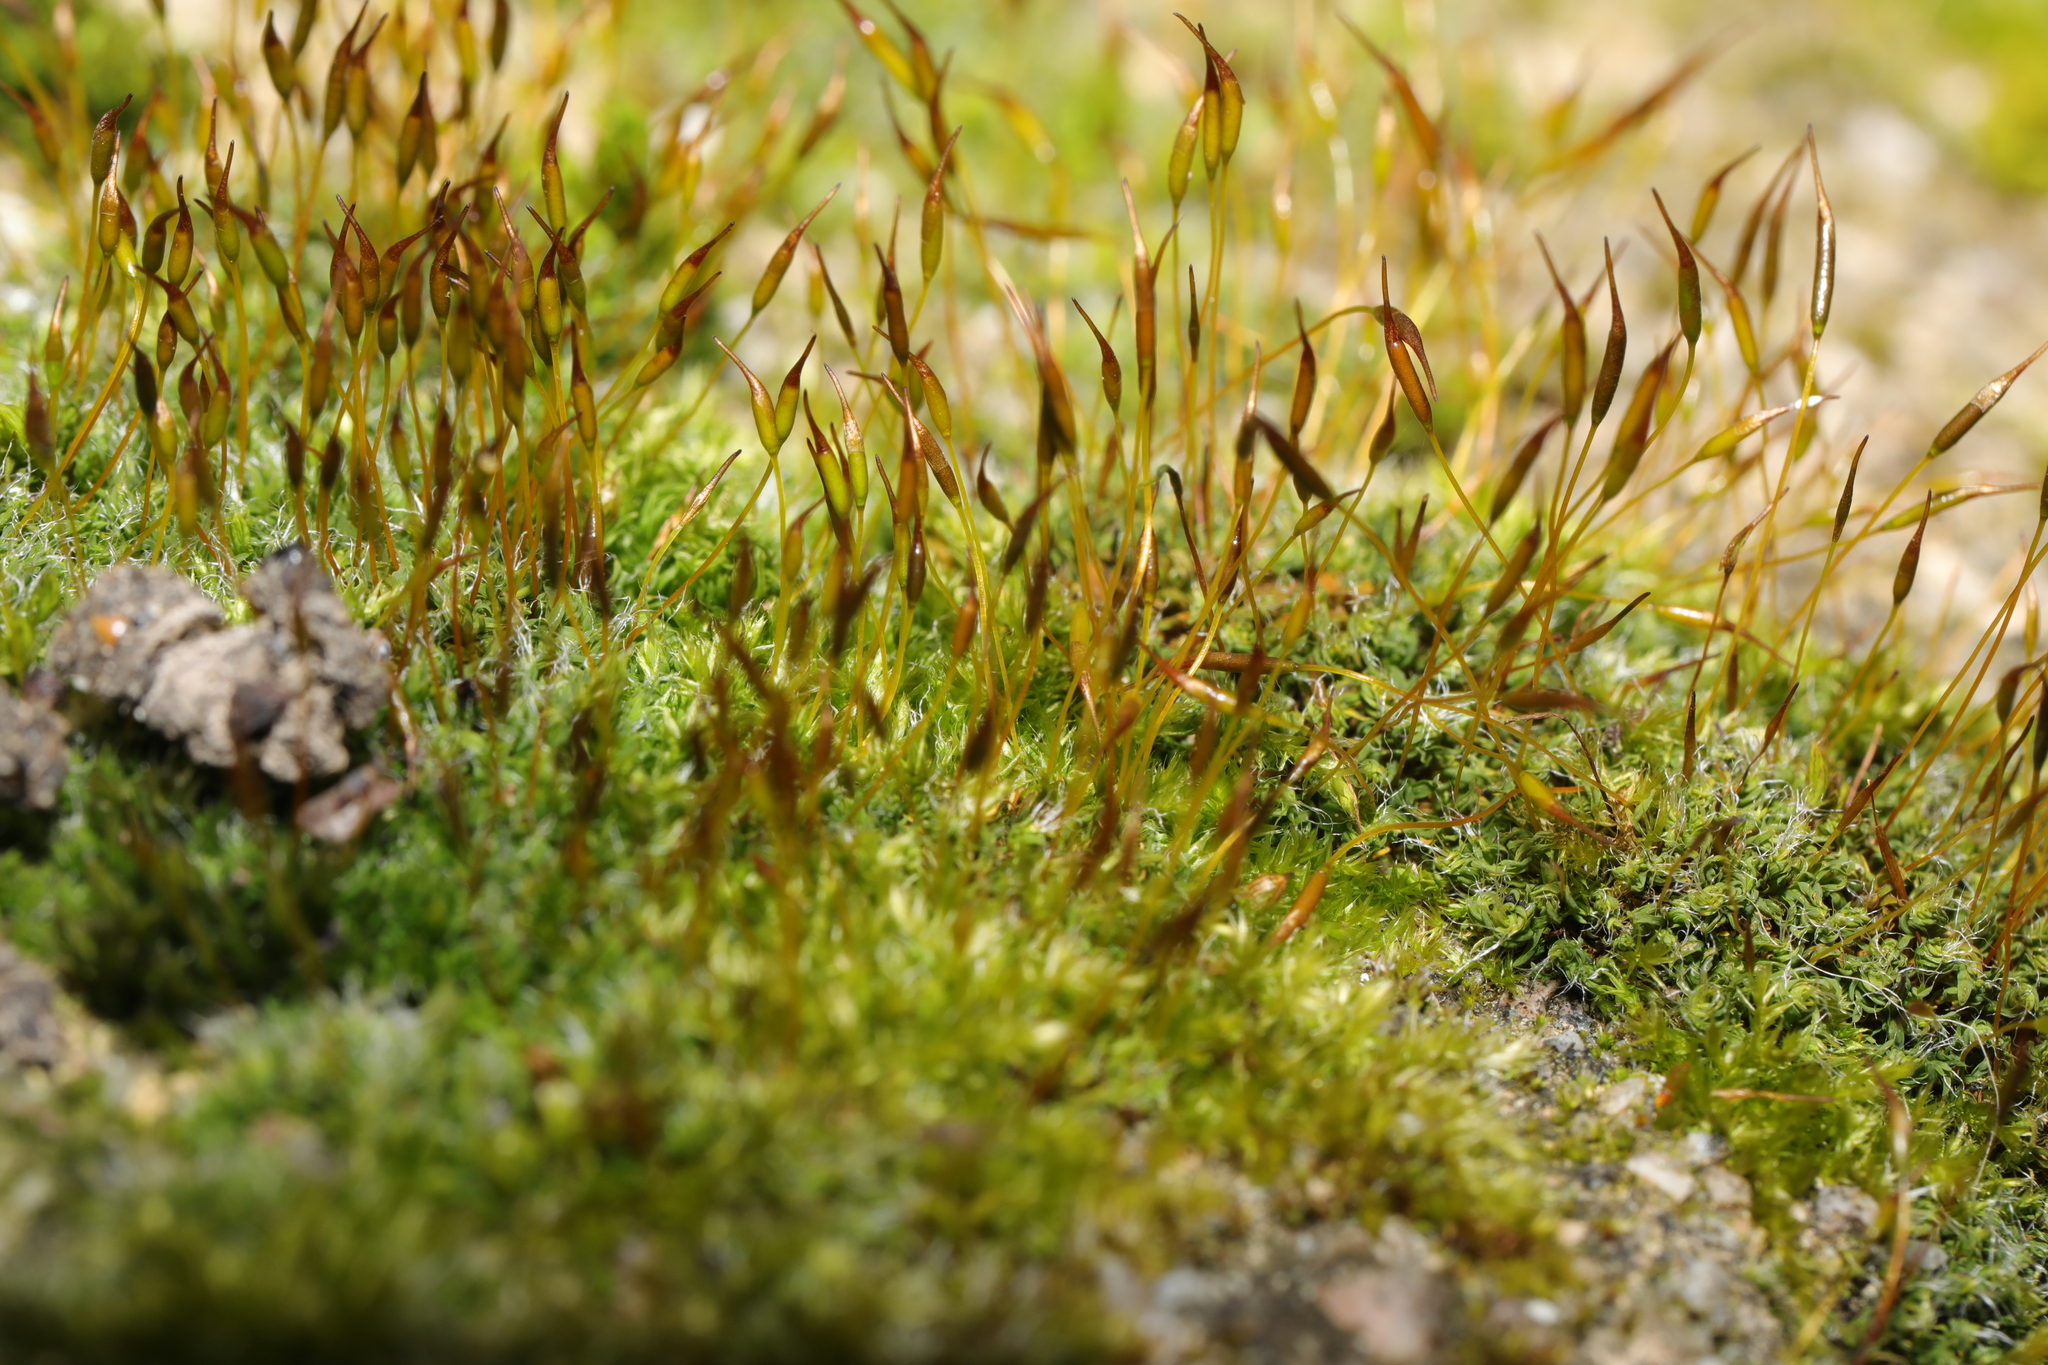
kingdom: Plantae
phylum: Bryophyta
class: Bryopsida
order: Pottiales
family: Pottiaceae
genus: Tortula
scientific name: Tortula muralis
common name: Wall screw-moss
